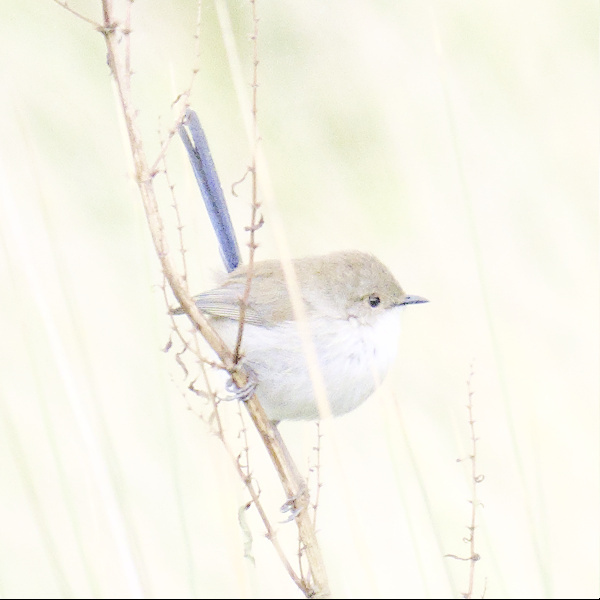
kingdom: Animalia
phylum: Chordata
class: Aves
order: Passeriformes
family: Maluridae
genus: Malurus
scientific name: Malurus cyaneus
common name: Superb fairywren
